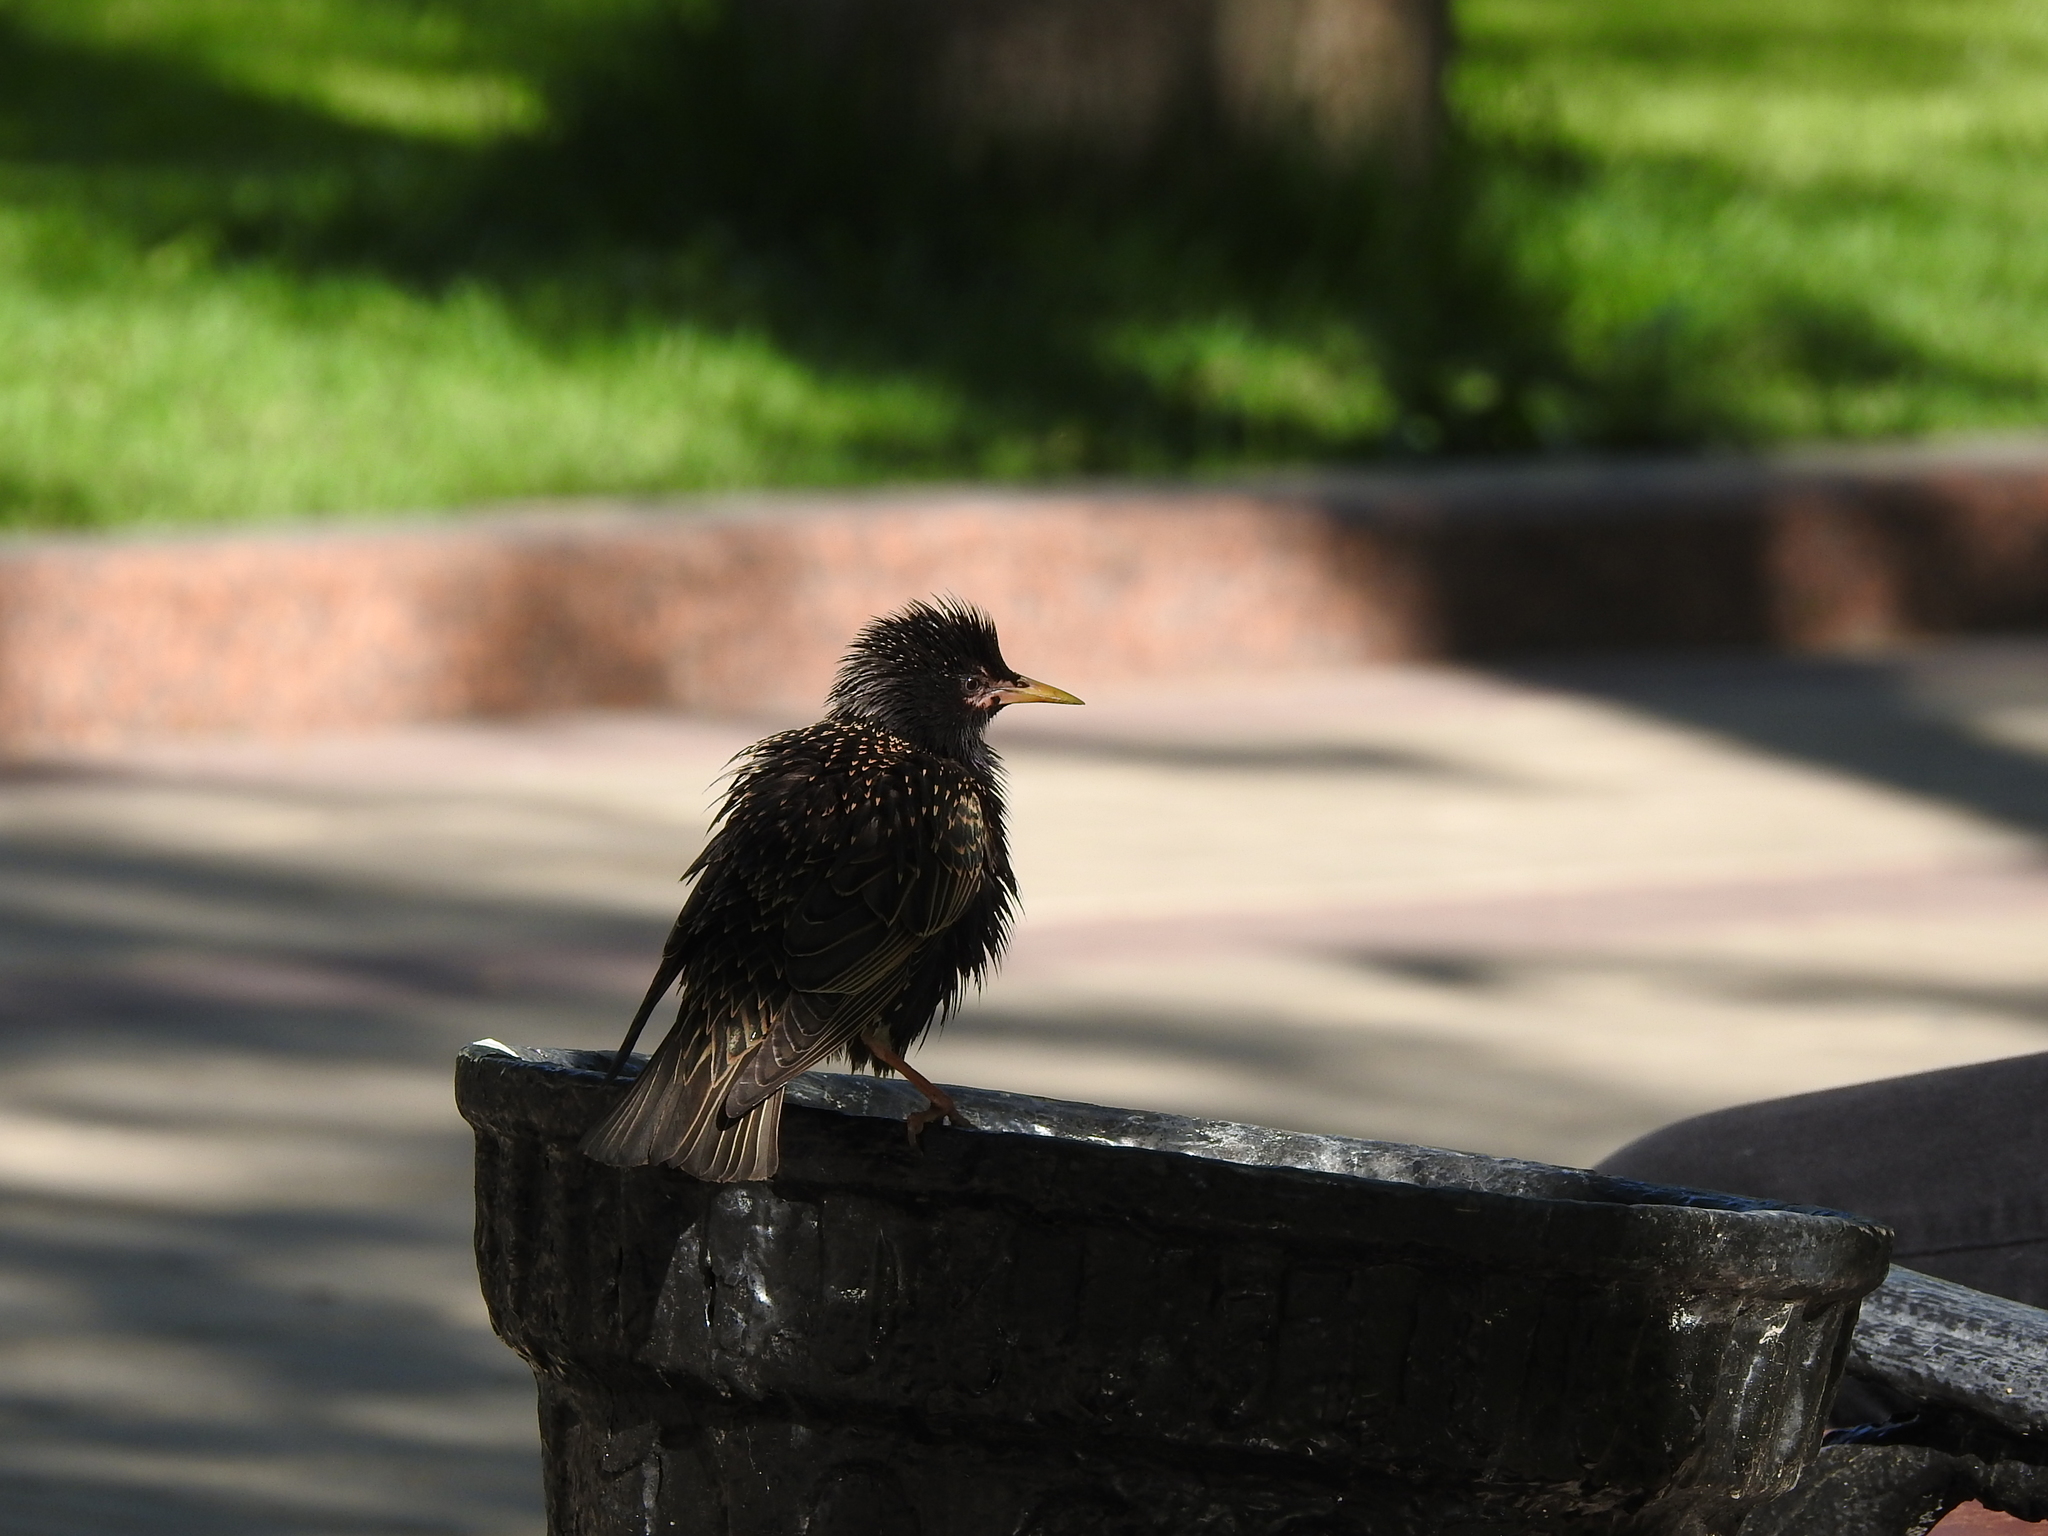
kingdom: Animalia
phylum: Chordata
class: Aves
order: Passeriformes
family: Sturnidae
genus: Sturnus
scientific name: Sturnus vulgaris
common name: Common starling
